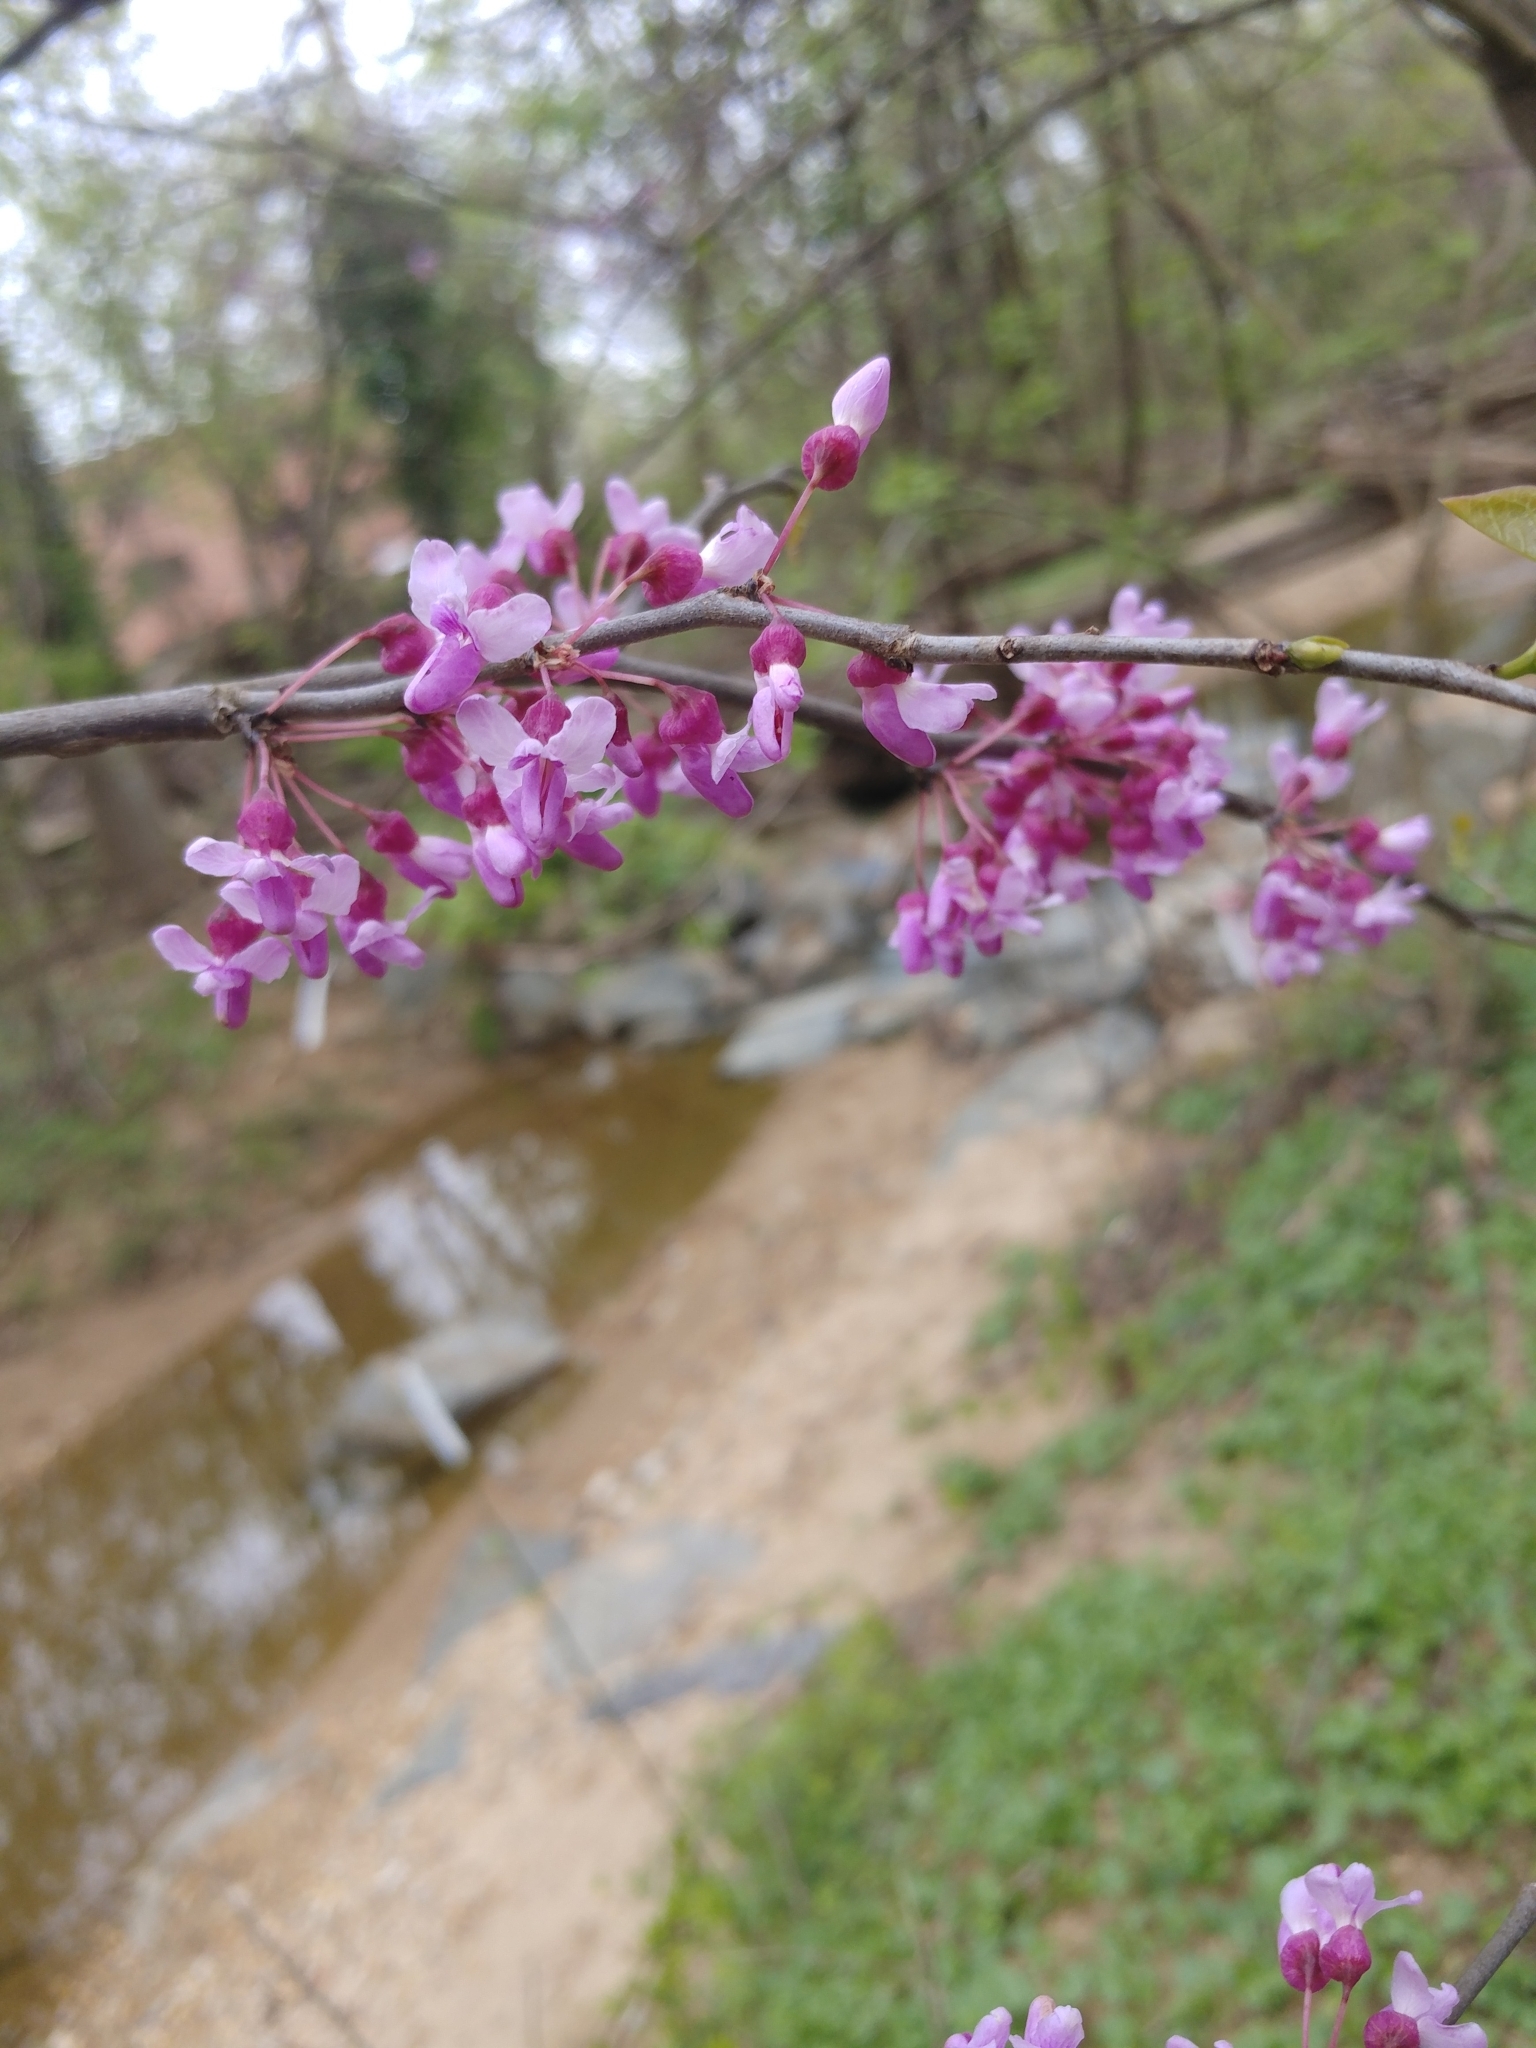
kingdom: Plantae
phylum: Tracheophyta
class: Magnoliopsida
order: Fabales
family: Fabaceae
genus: Cercis
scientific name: Cercis canadensis
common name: Eastern redbud
